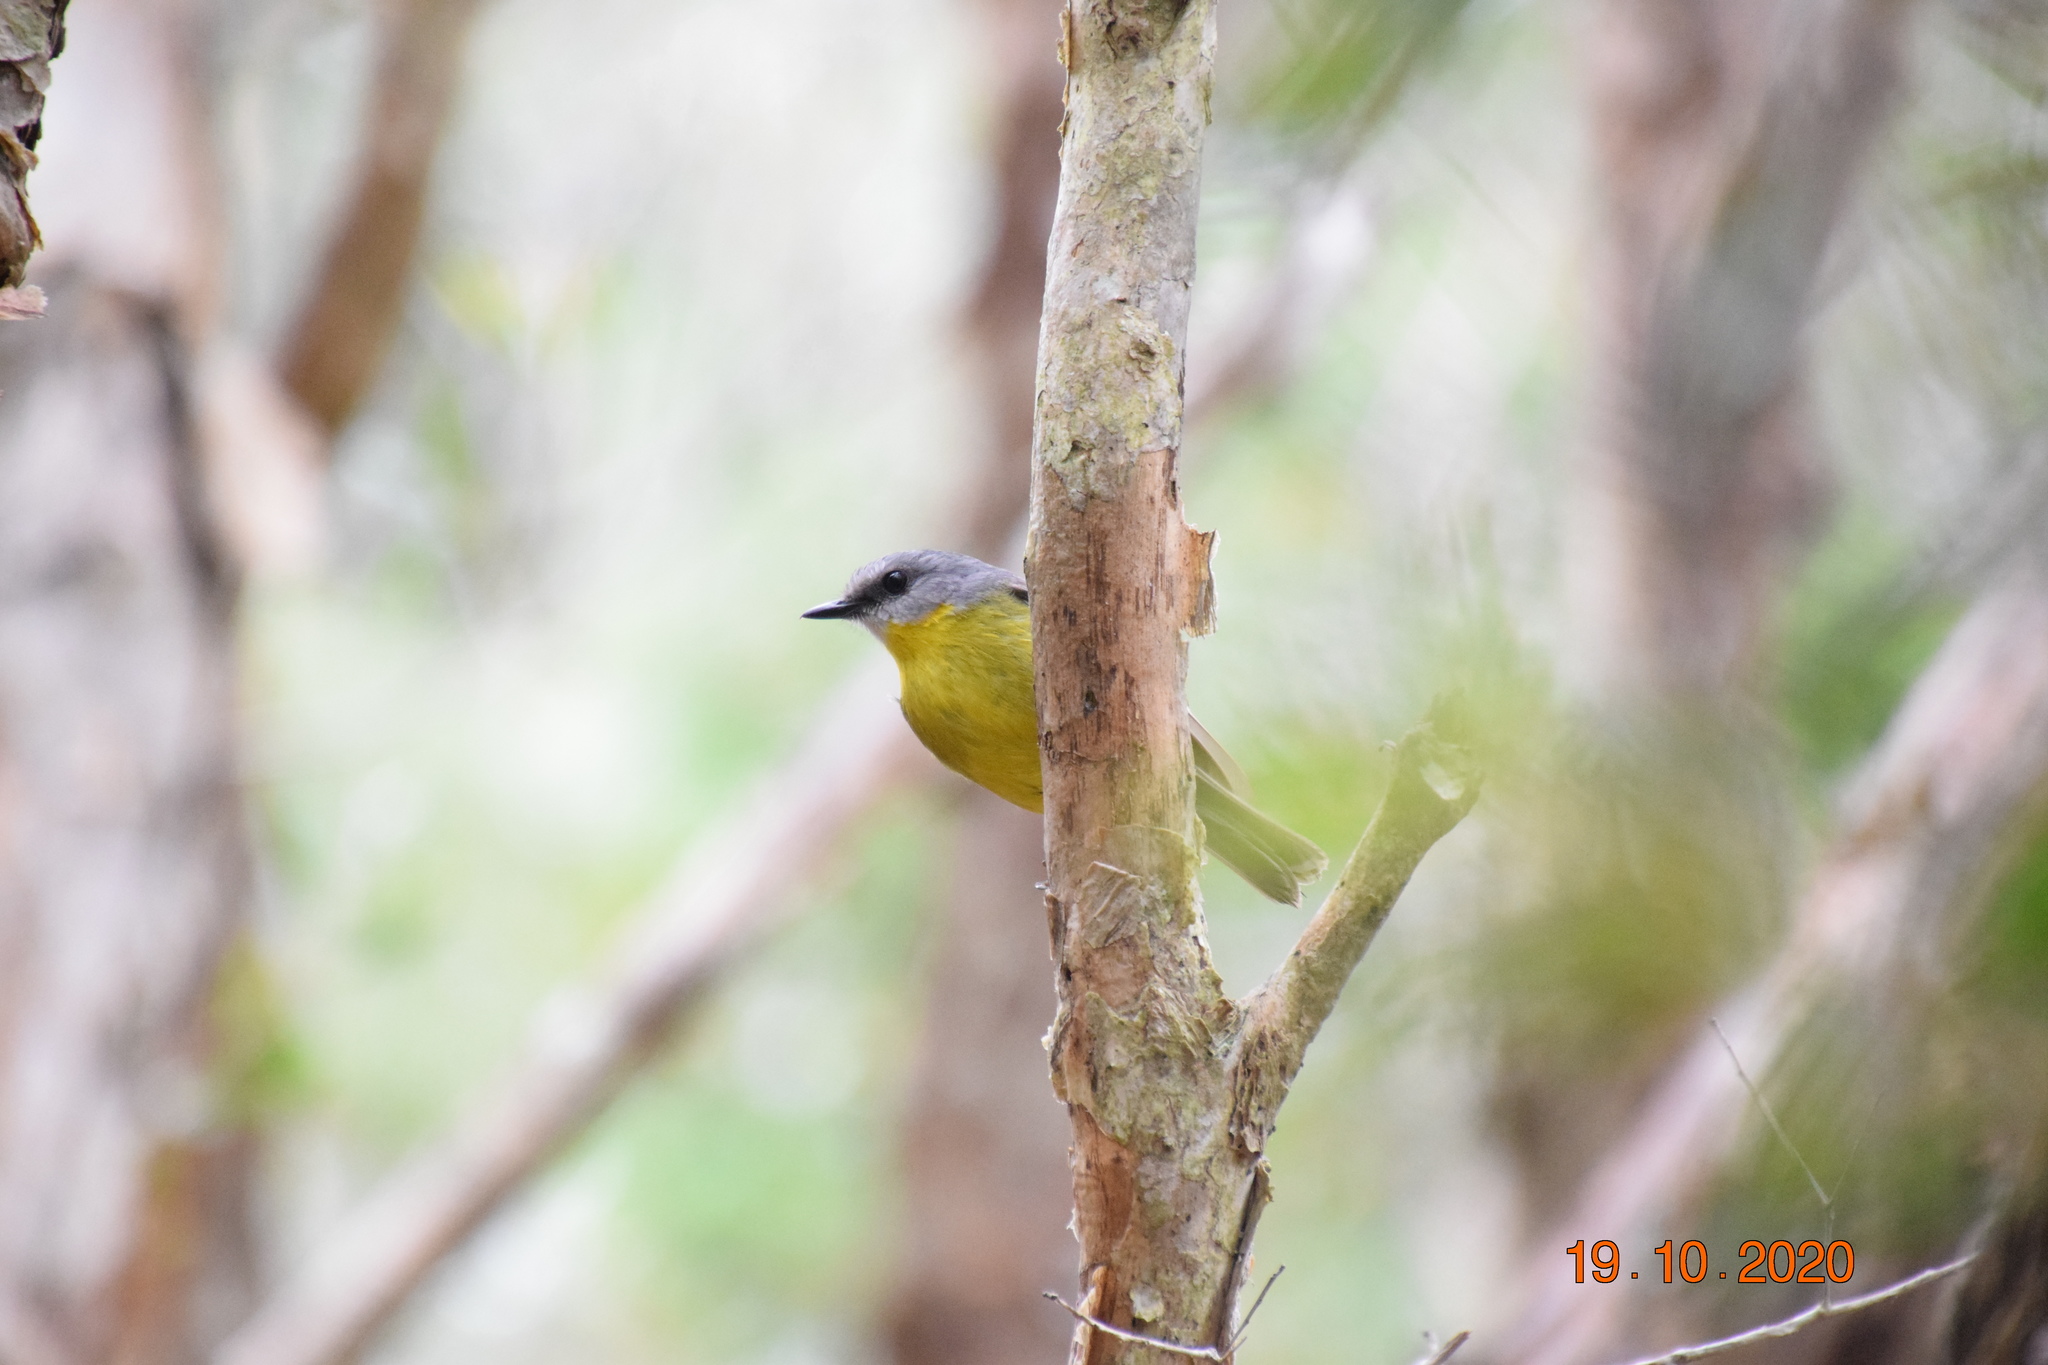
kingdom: Animalia
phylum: Chordata
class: Aves
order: Passeriformes
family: Petroicidae
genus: Eopsaltria
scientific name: Eopsaltria australis
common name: Eastern yellow robin
